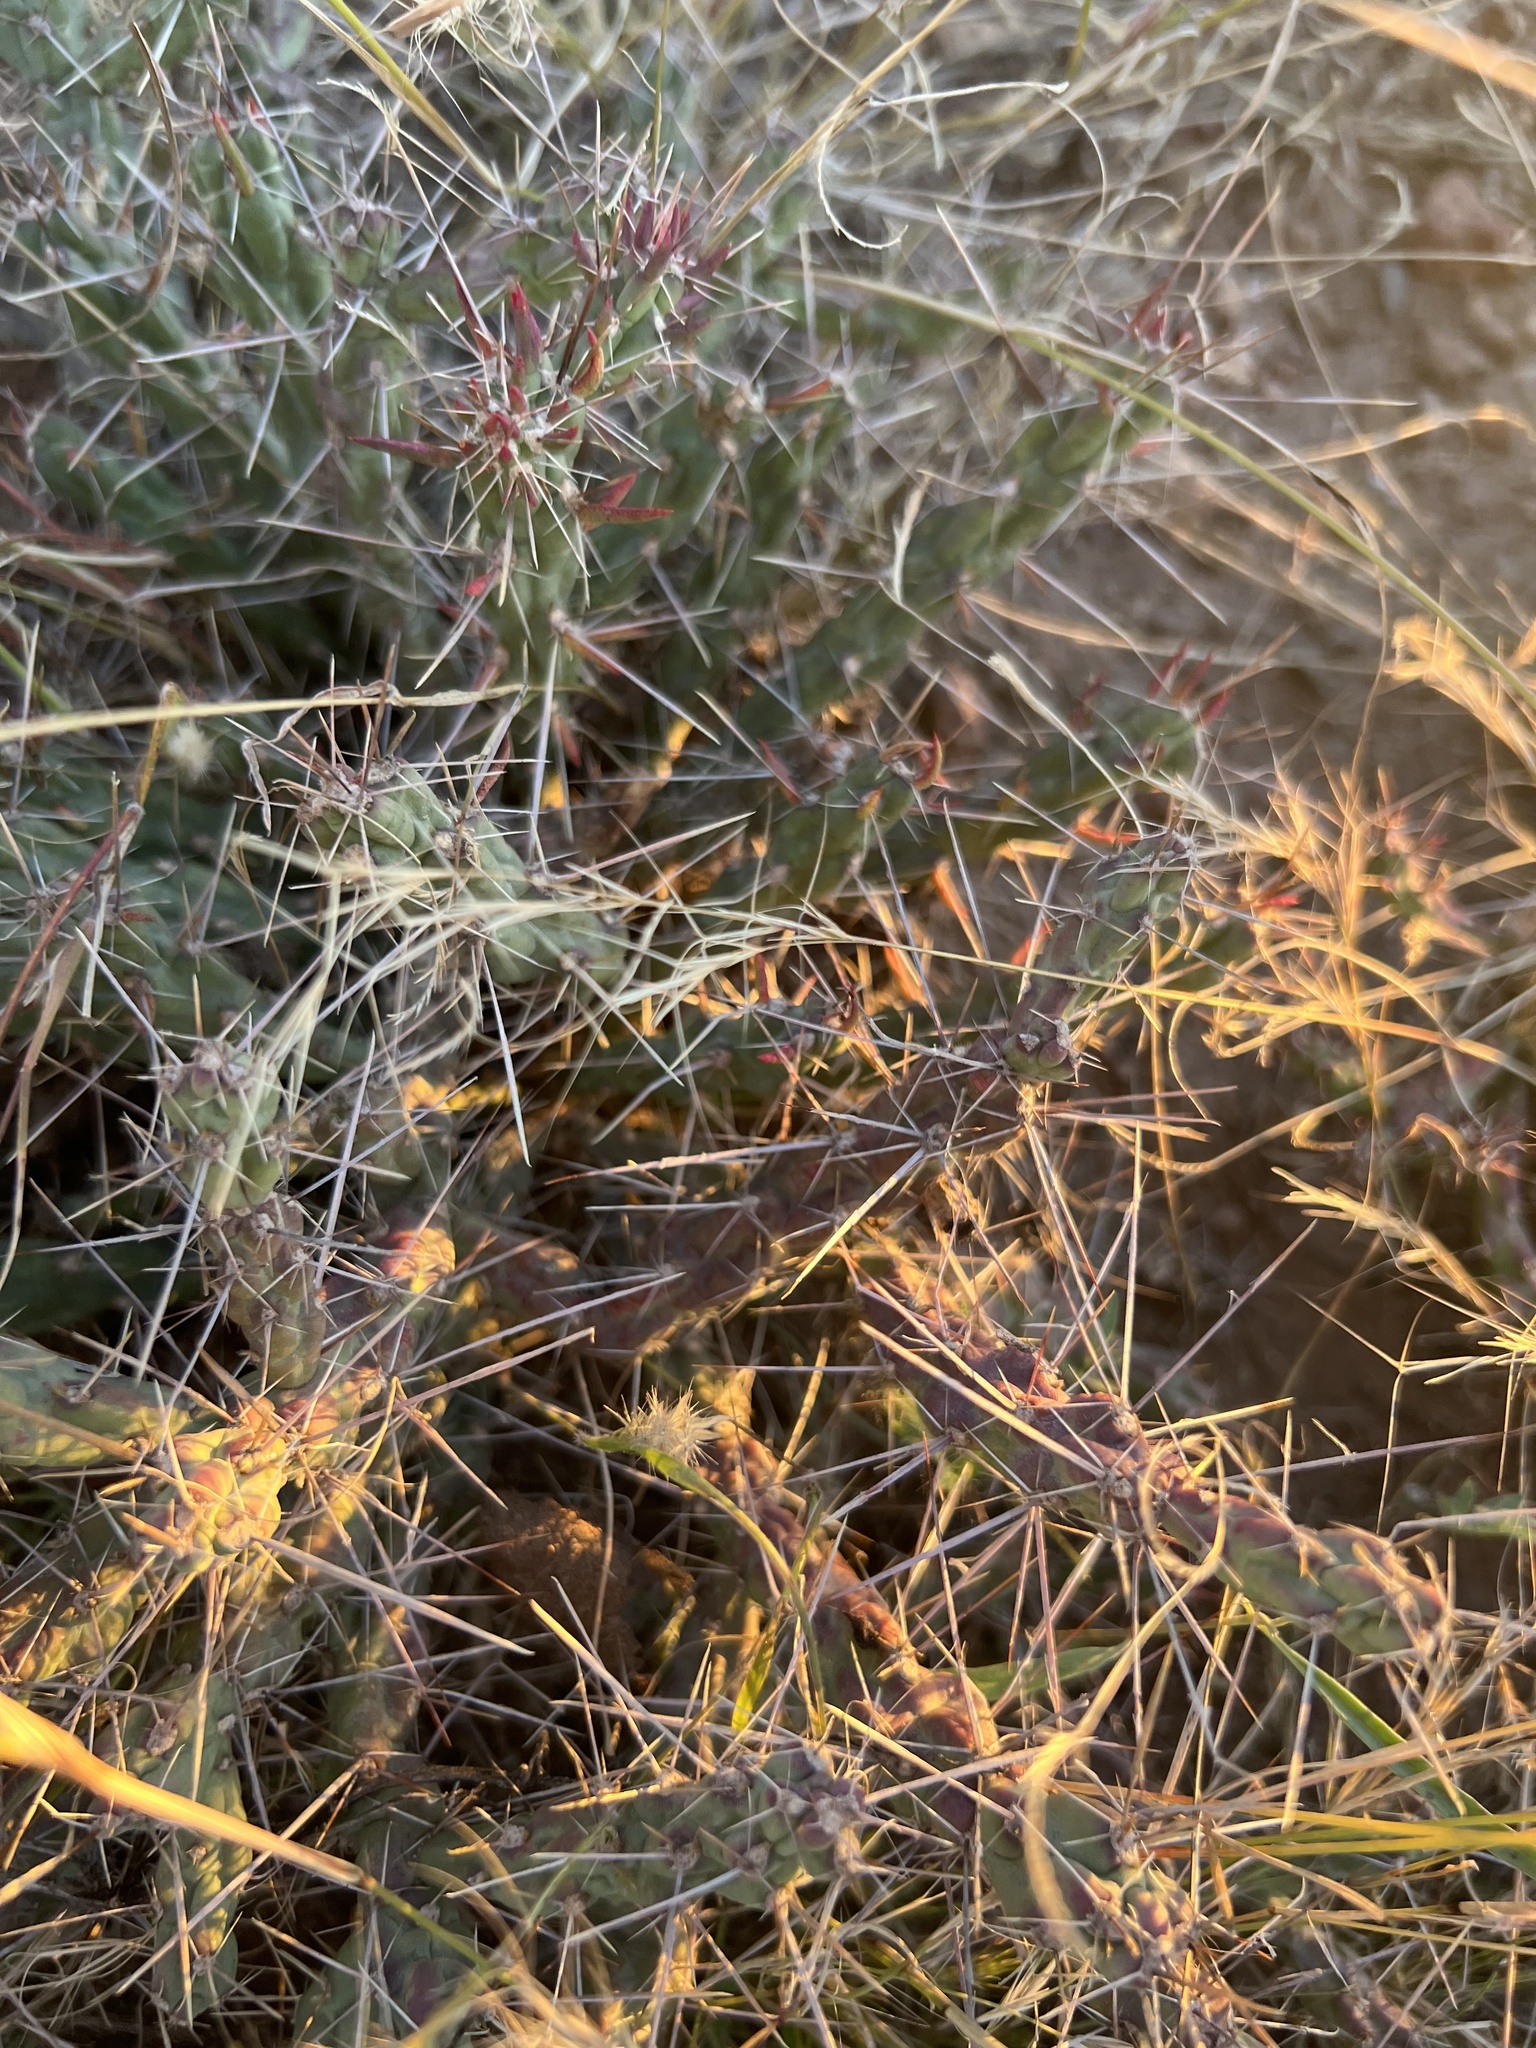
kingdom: Plantae
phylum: Tracheophyta
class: Magnoliopsida
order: Caryophyllales
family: Cactaceae
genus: Cylindropuntia
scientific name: Cylindropuntia davisii
